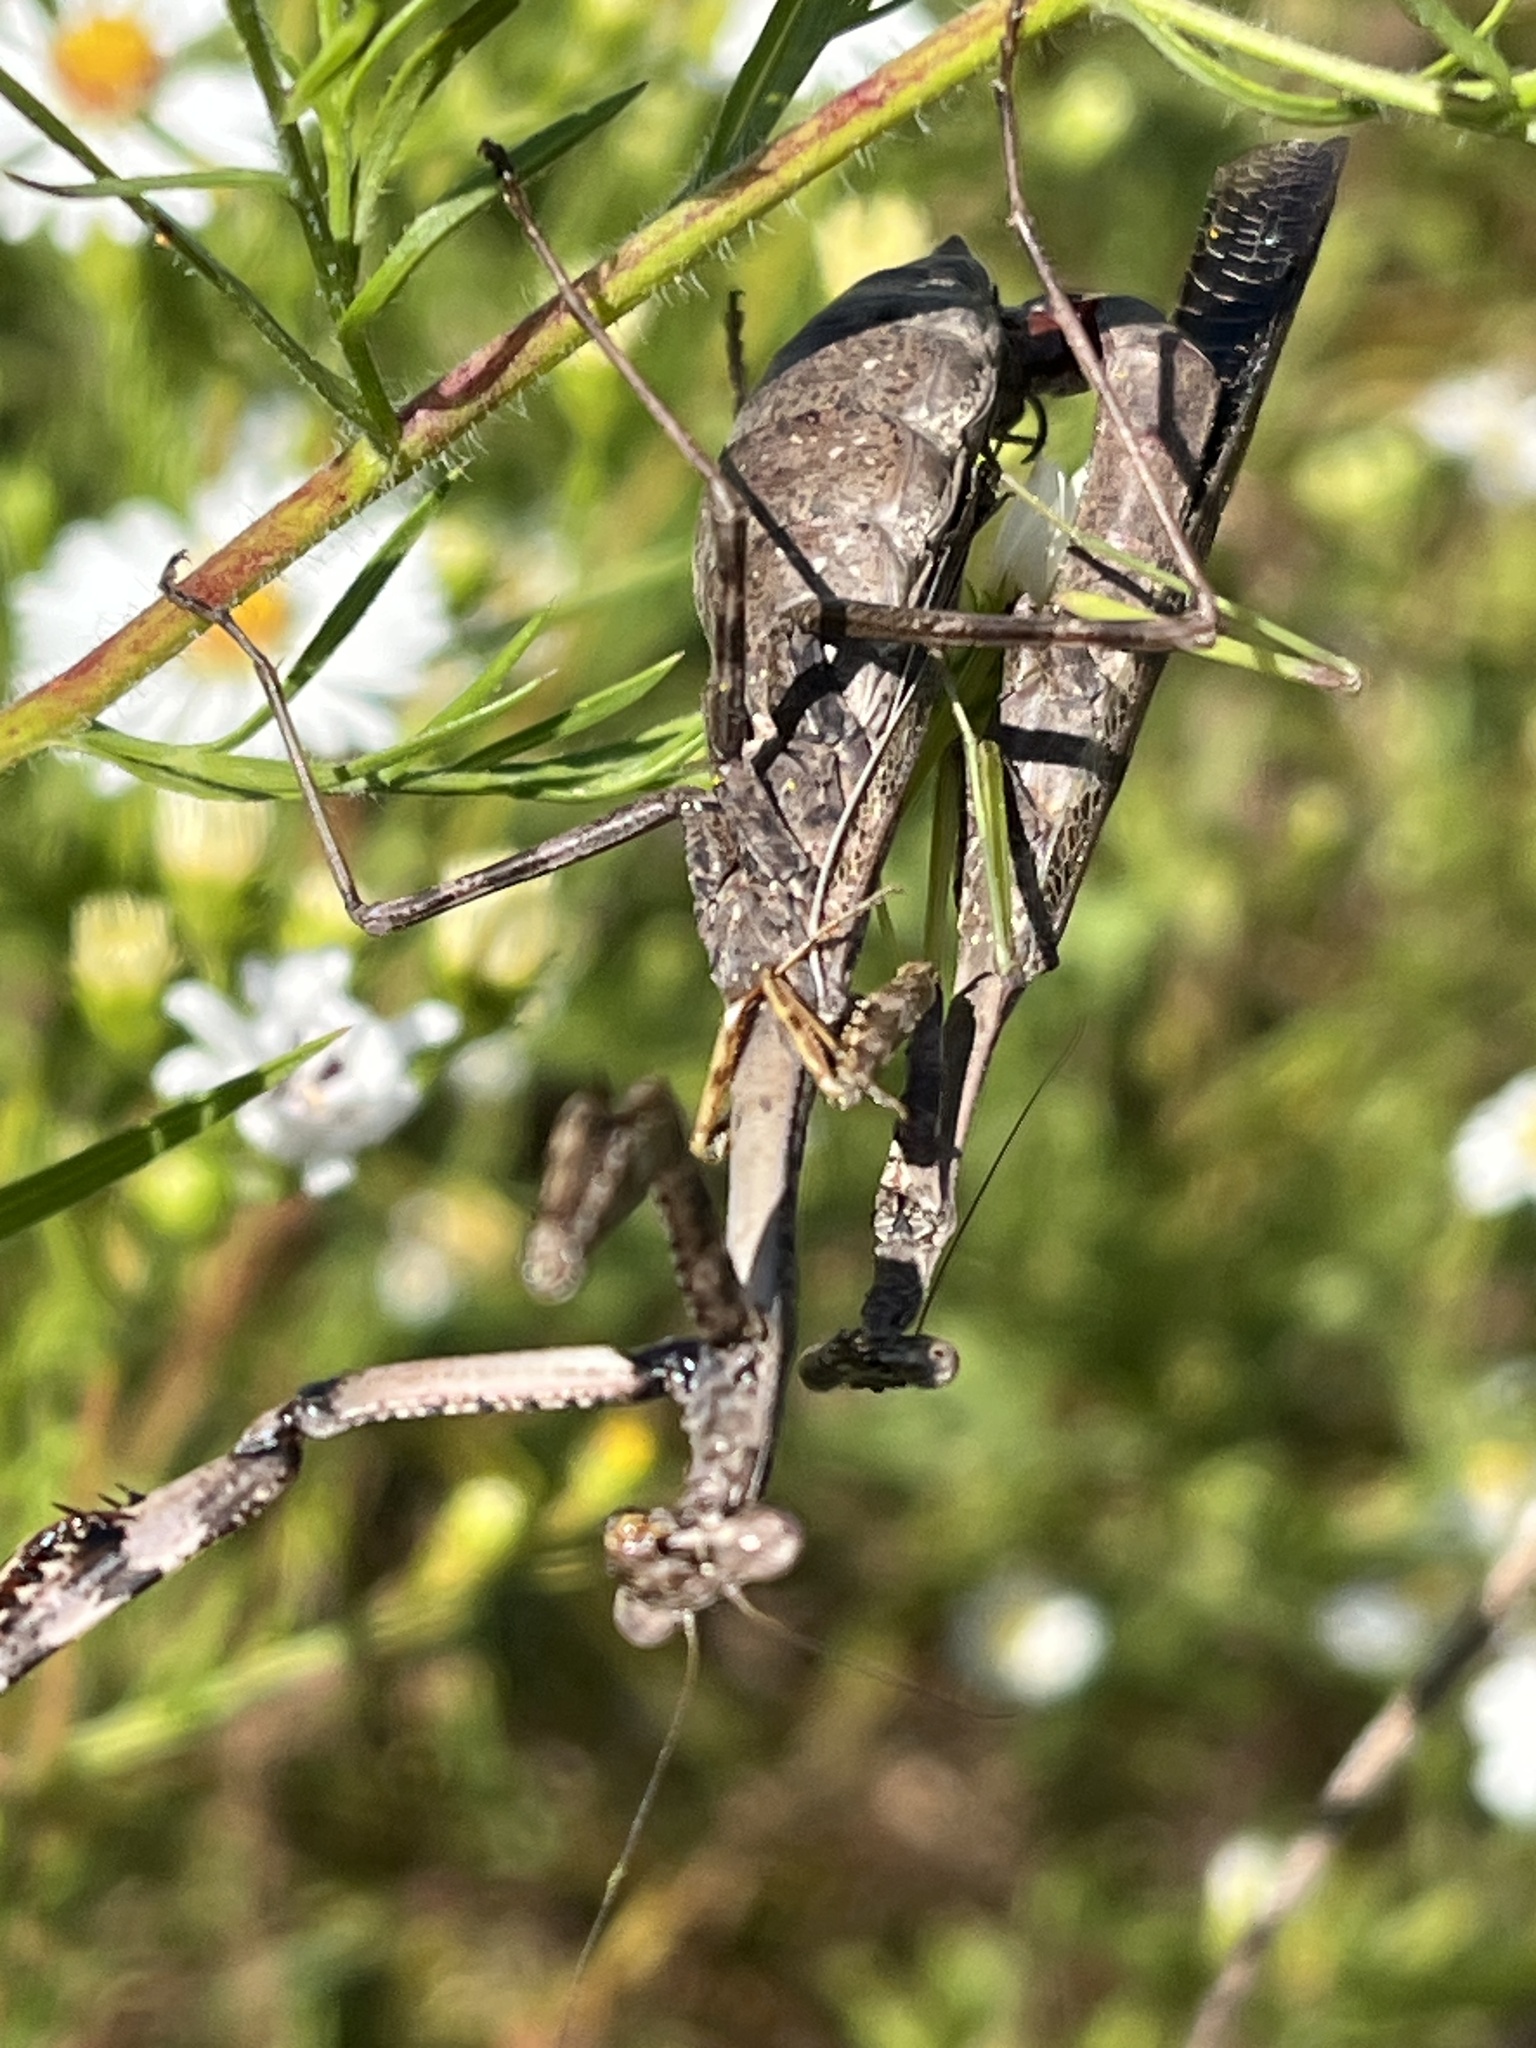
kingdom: Animalia
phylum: Arthropoda
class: Insecta
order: Mantodea
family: Mantidae
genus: Stagmomantis
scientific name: Stagmomantis carolina
